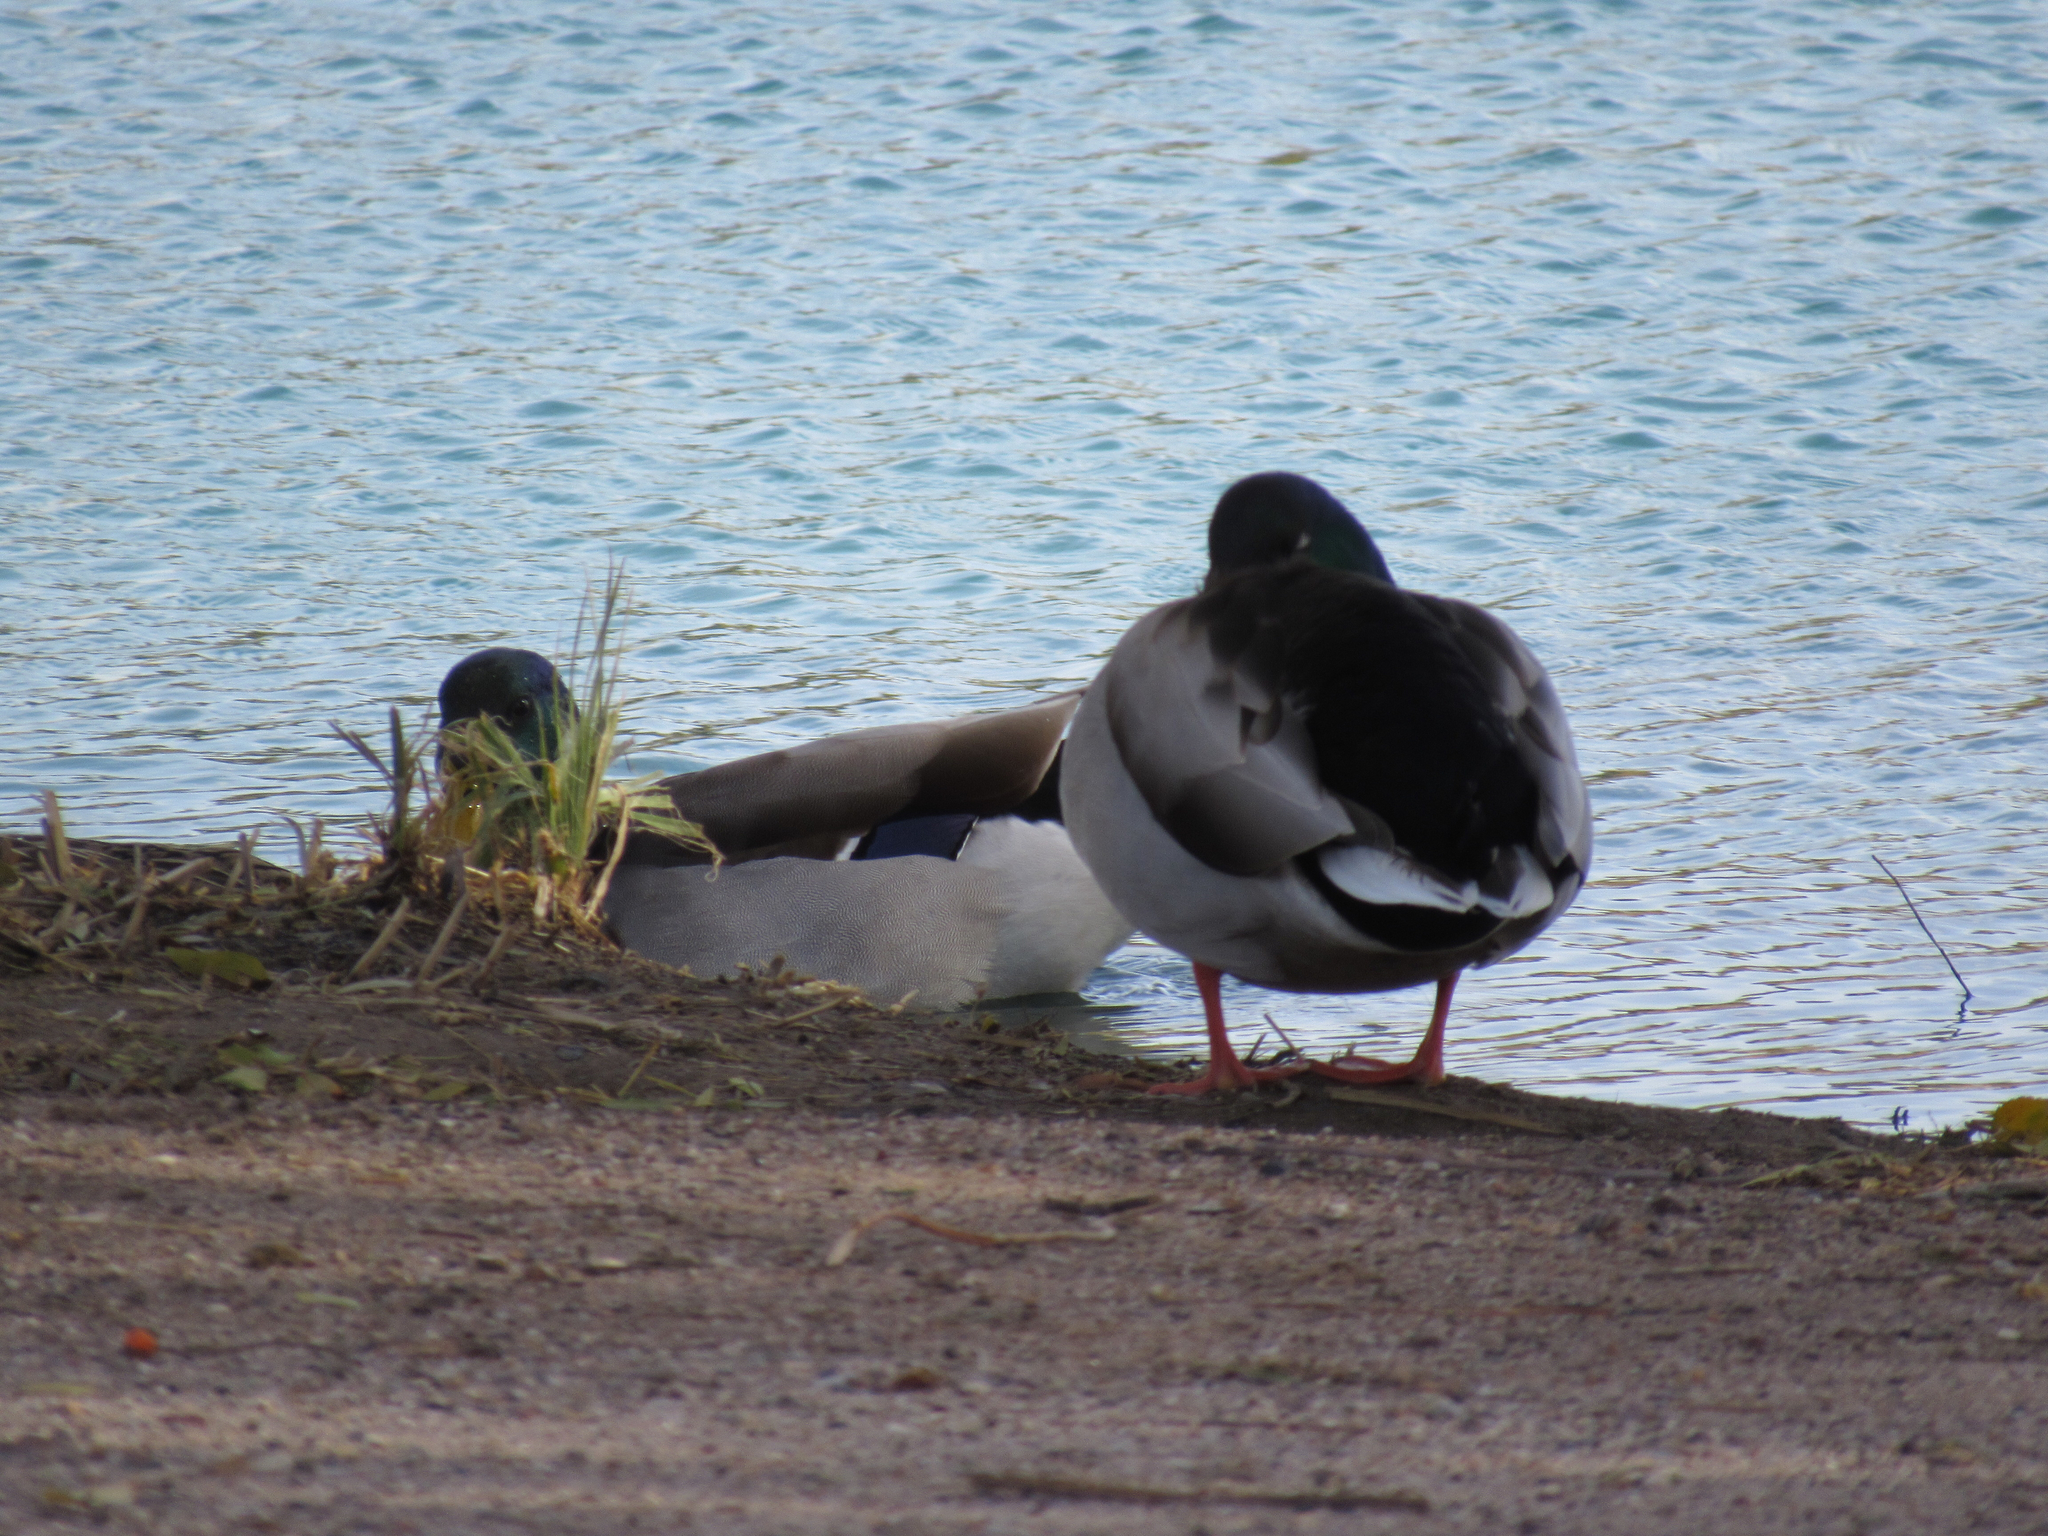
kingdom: Animalia
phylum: Chordata
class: Aves
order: Anseriformes
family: Anatidae
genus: Anas
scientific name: Anas platyrhynchos
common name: Mallard
